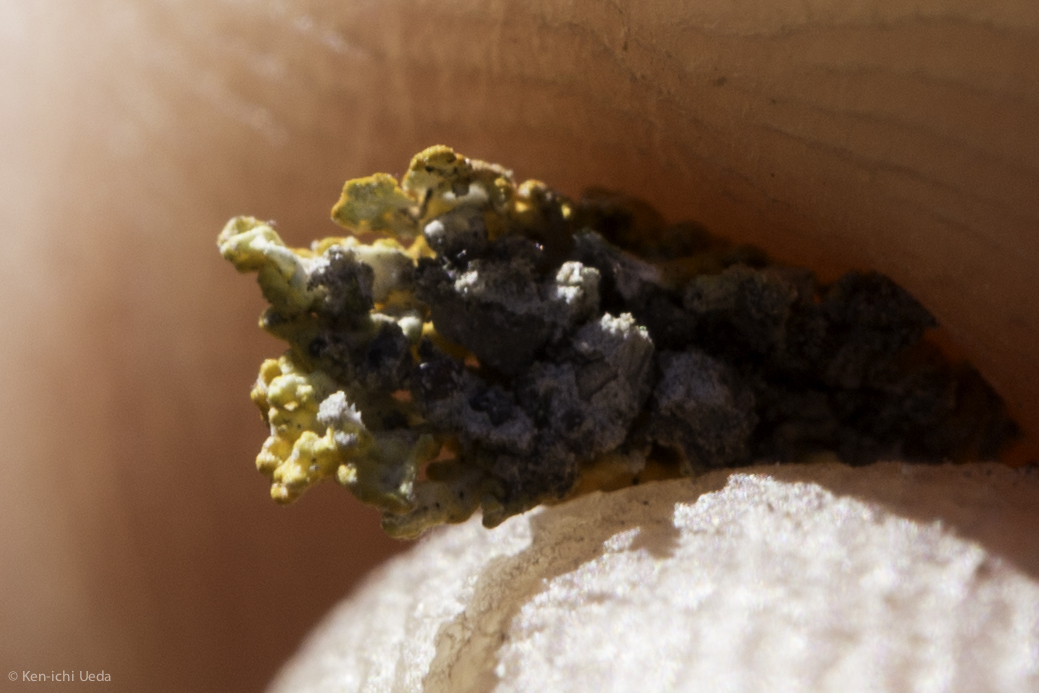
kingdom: Fungi
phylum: Ascomycota
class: Lecanoromycetes
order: Teloschistales
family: Teloschistaceae
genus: Xanthoria
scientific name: Xanthoria elegans
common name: Elegant sunburst lichen
